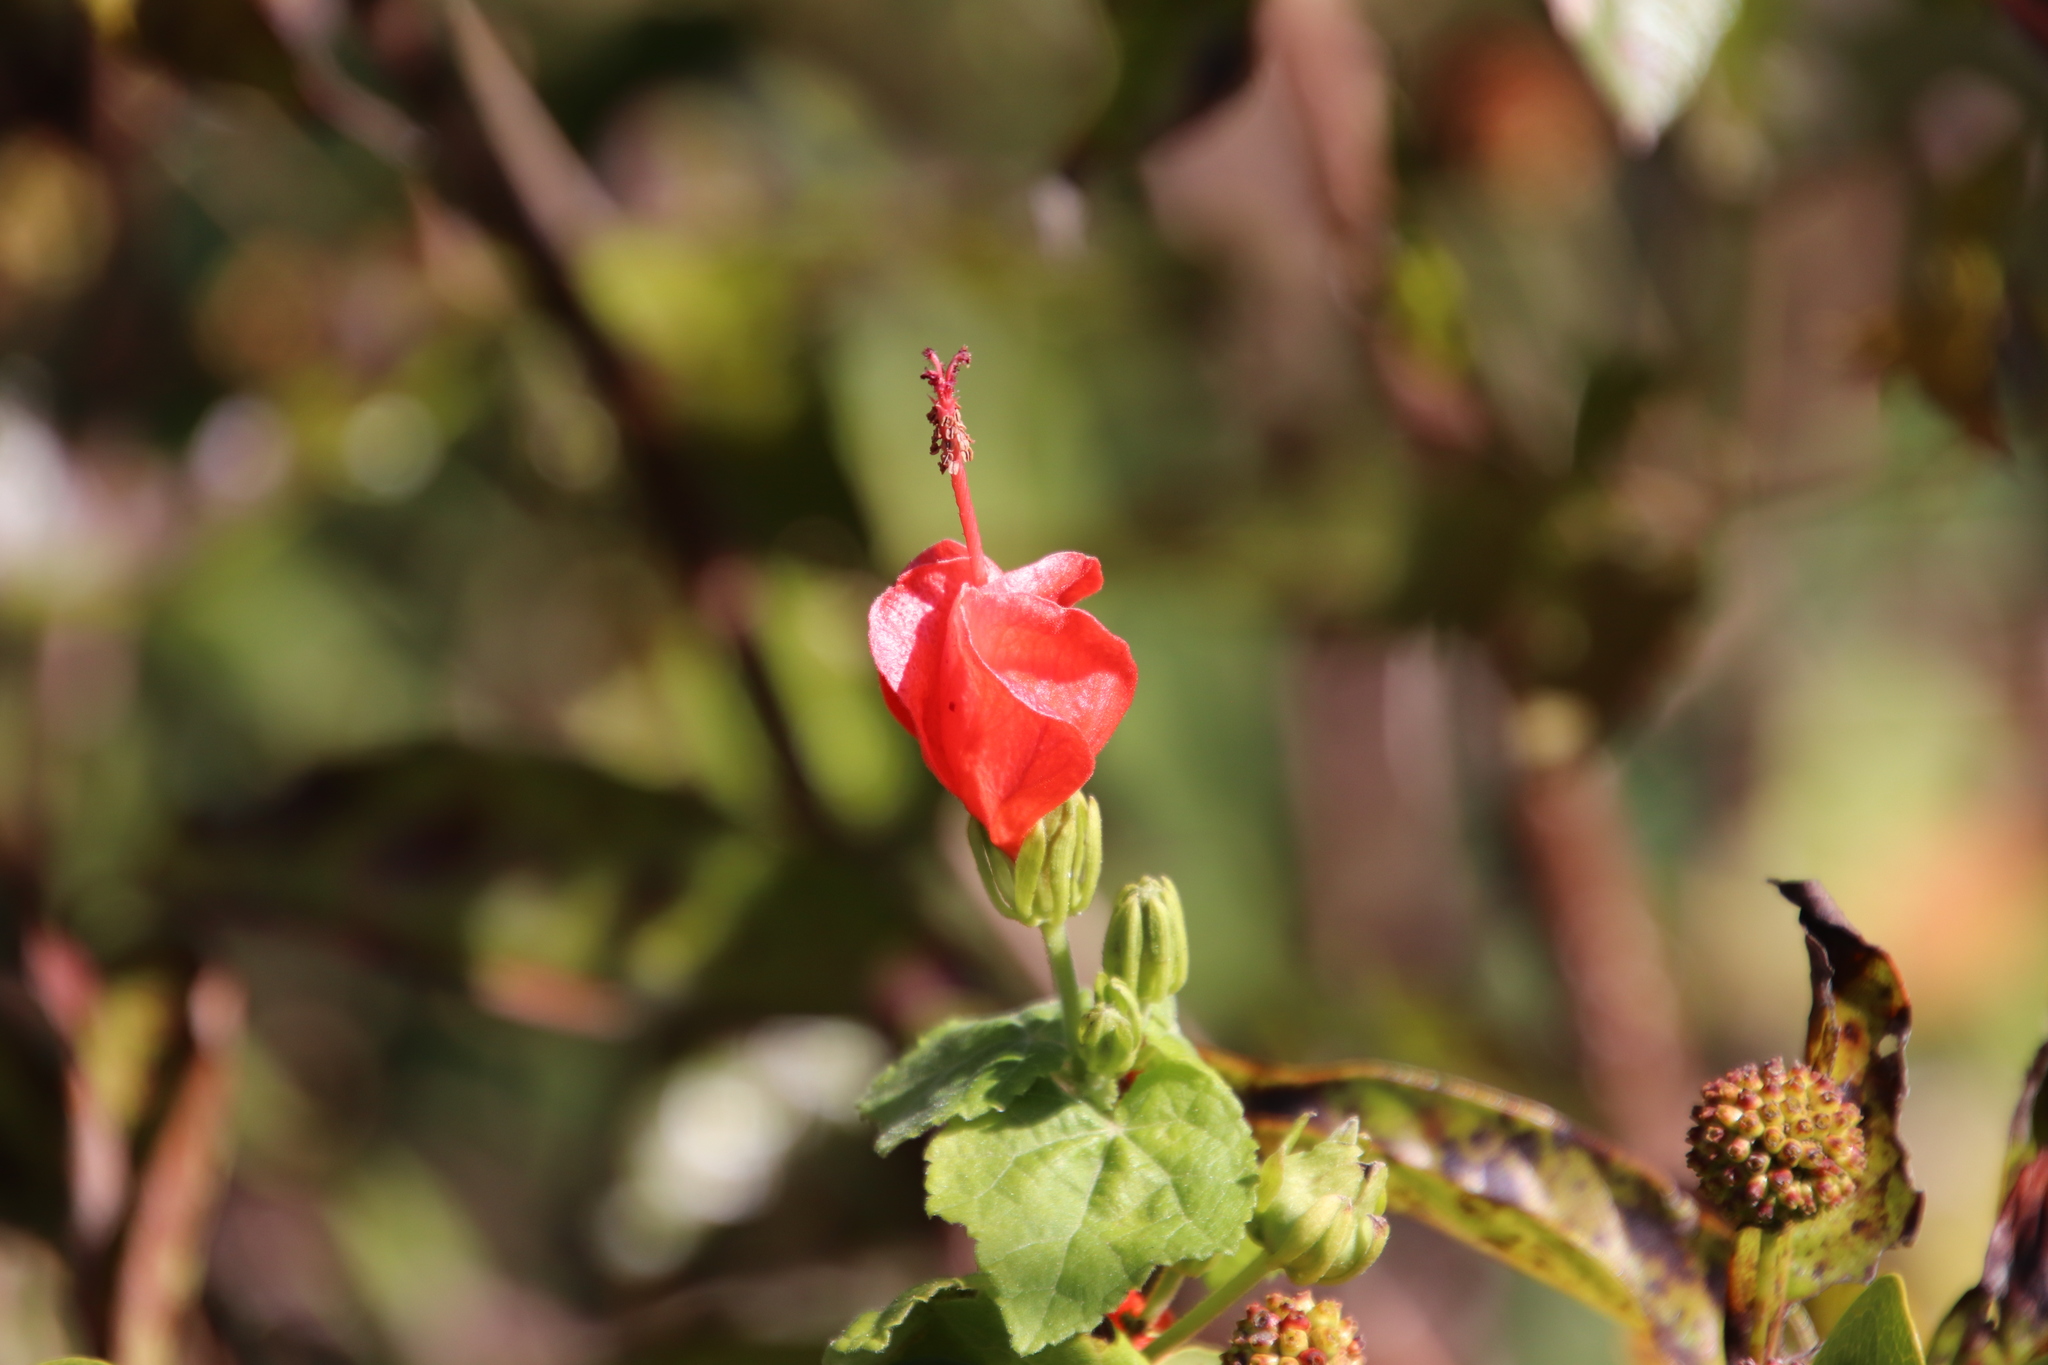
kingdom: Plantae
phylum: Tracheophyta
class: Magnoliopsida
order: Malvales
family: Malvaceae
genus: Malvaviscus
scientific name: Malvaviscus arboreus
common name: Wax mallow
